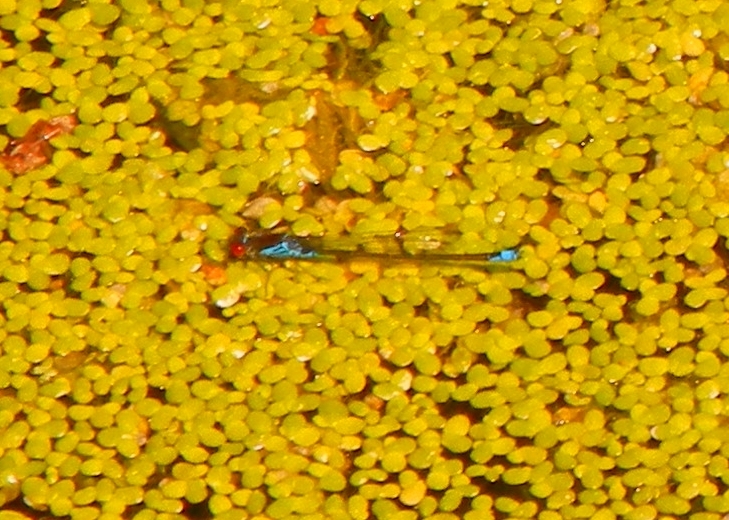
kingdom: Animalia
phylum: Arthropoda
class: Insecta
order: Odonata
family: Coenagrionidae
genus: Erythromma
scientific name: Erythromma viridulum
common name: Small red-eyed damselfly
